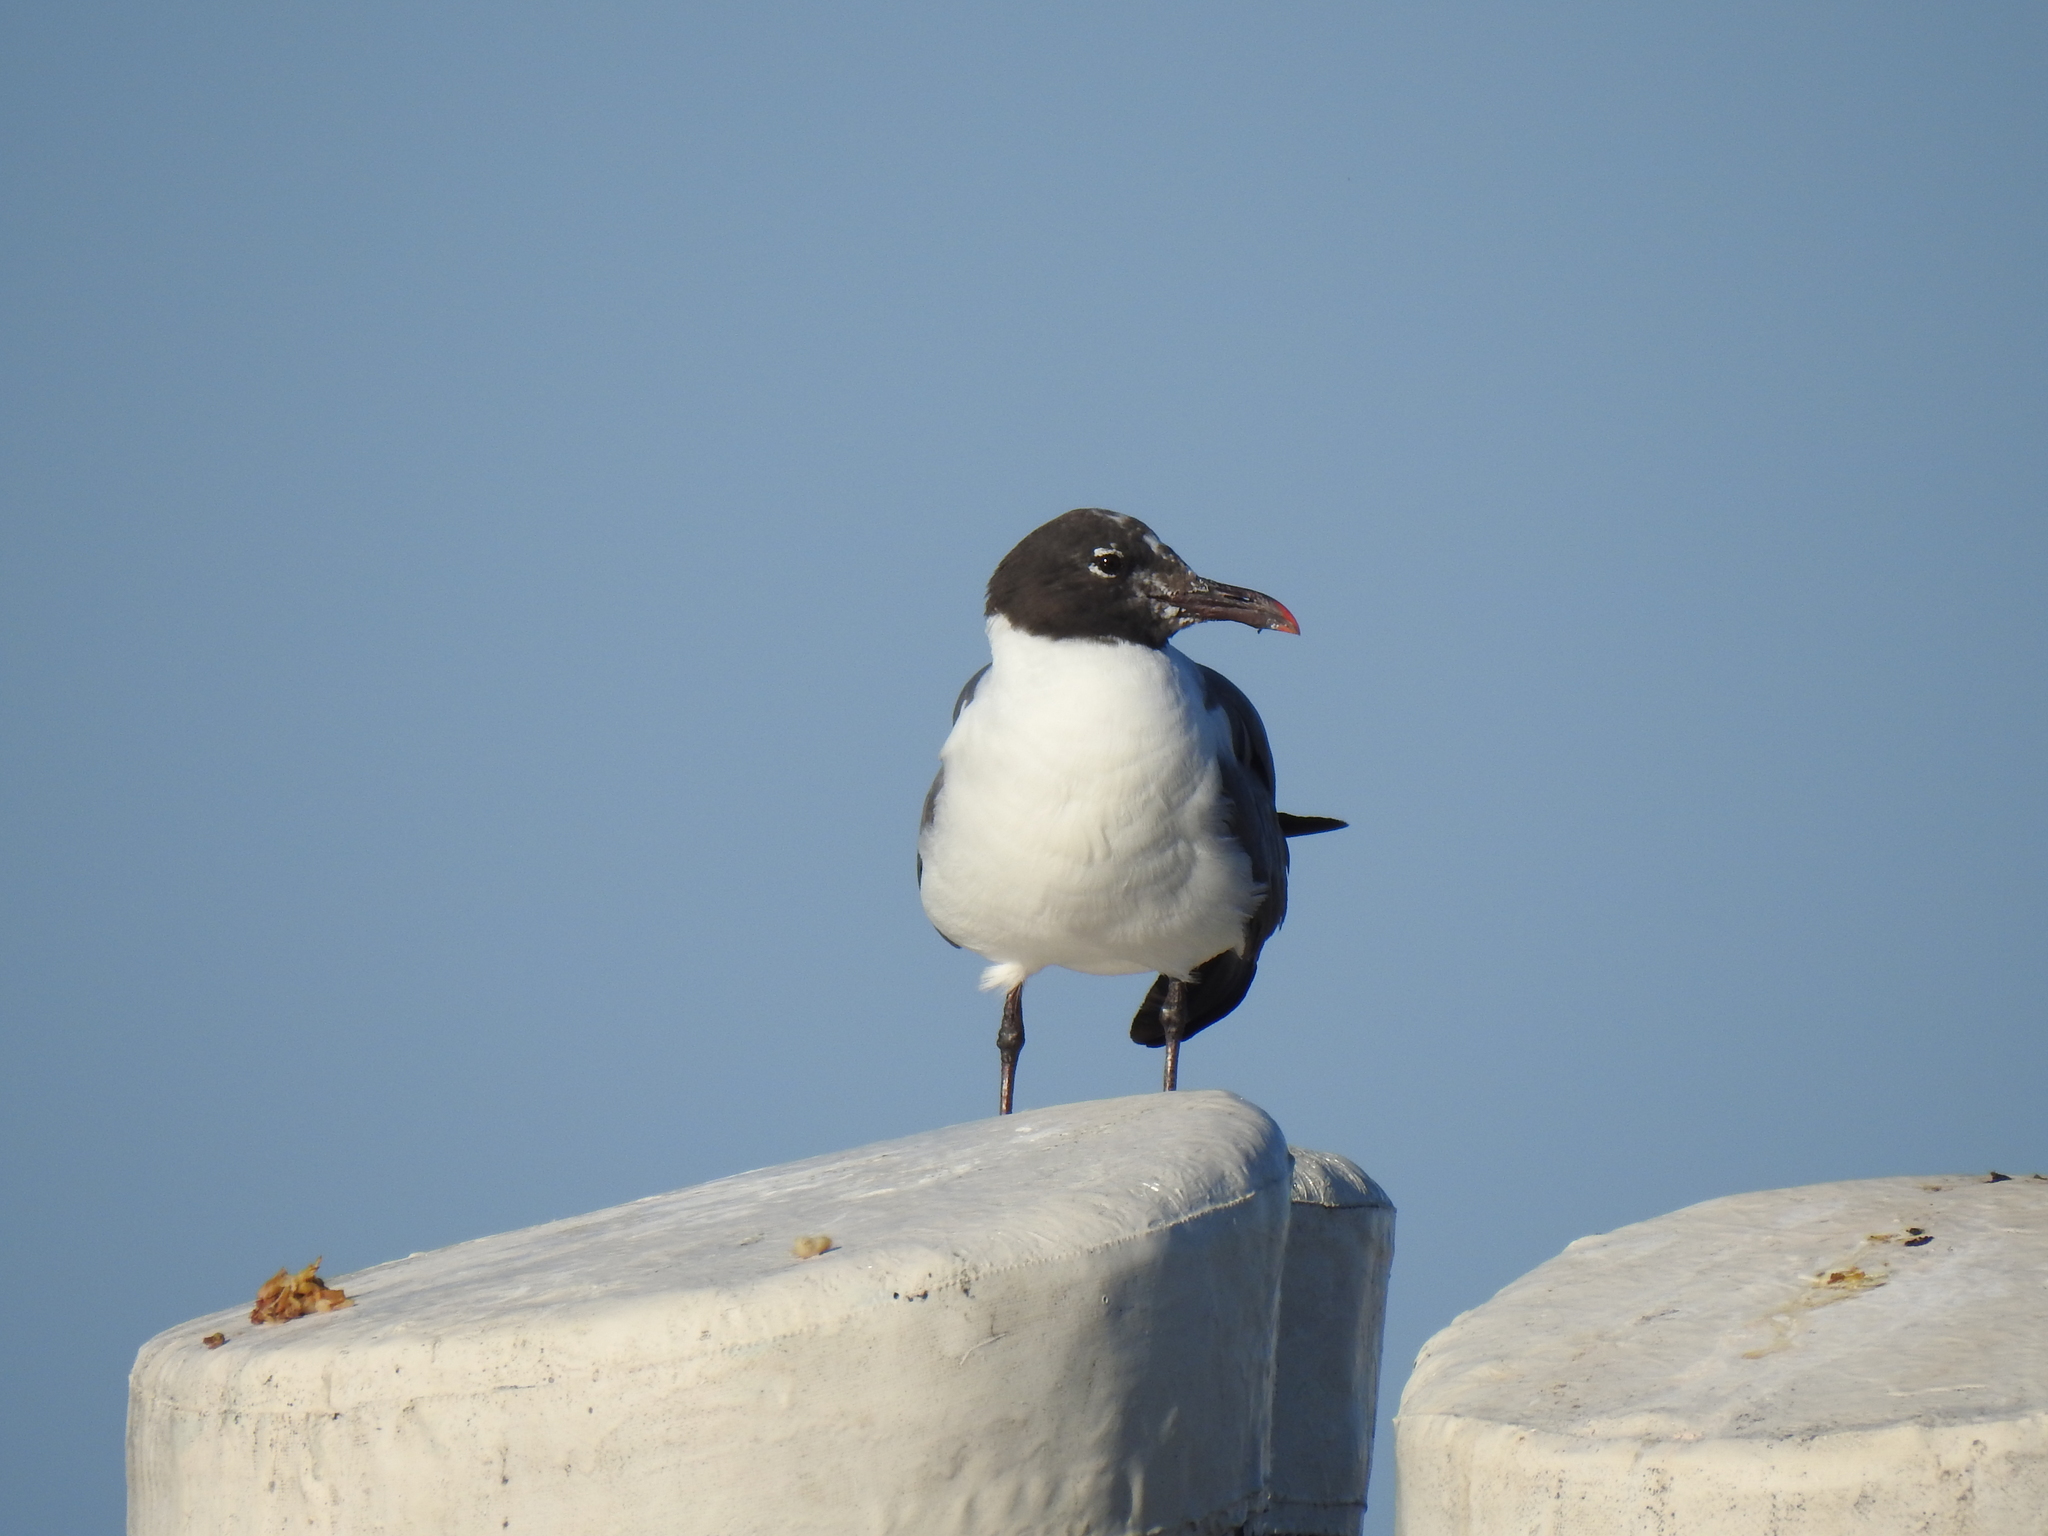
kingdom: Animalia
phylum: Chordata
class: Aves
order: Charadriiformes
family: Laridae
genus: Leucophaeus
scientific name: Leucophaeus atricilla
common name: Laughing gull
